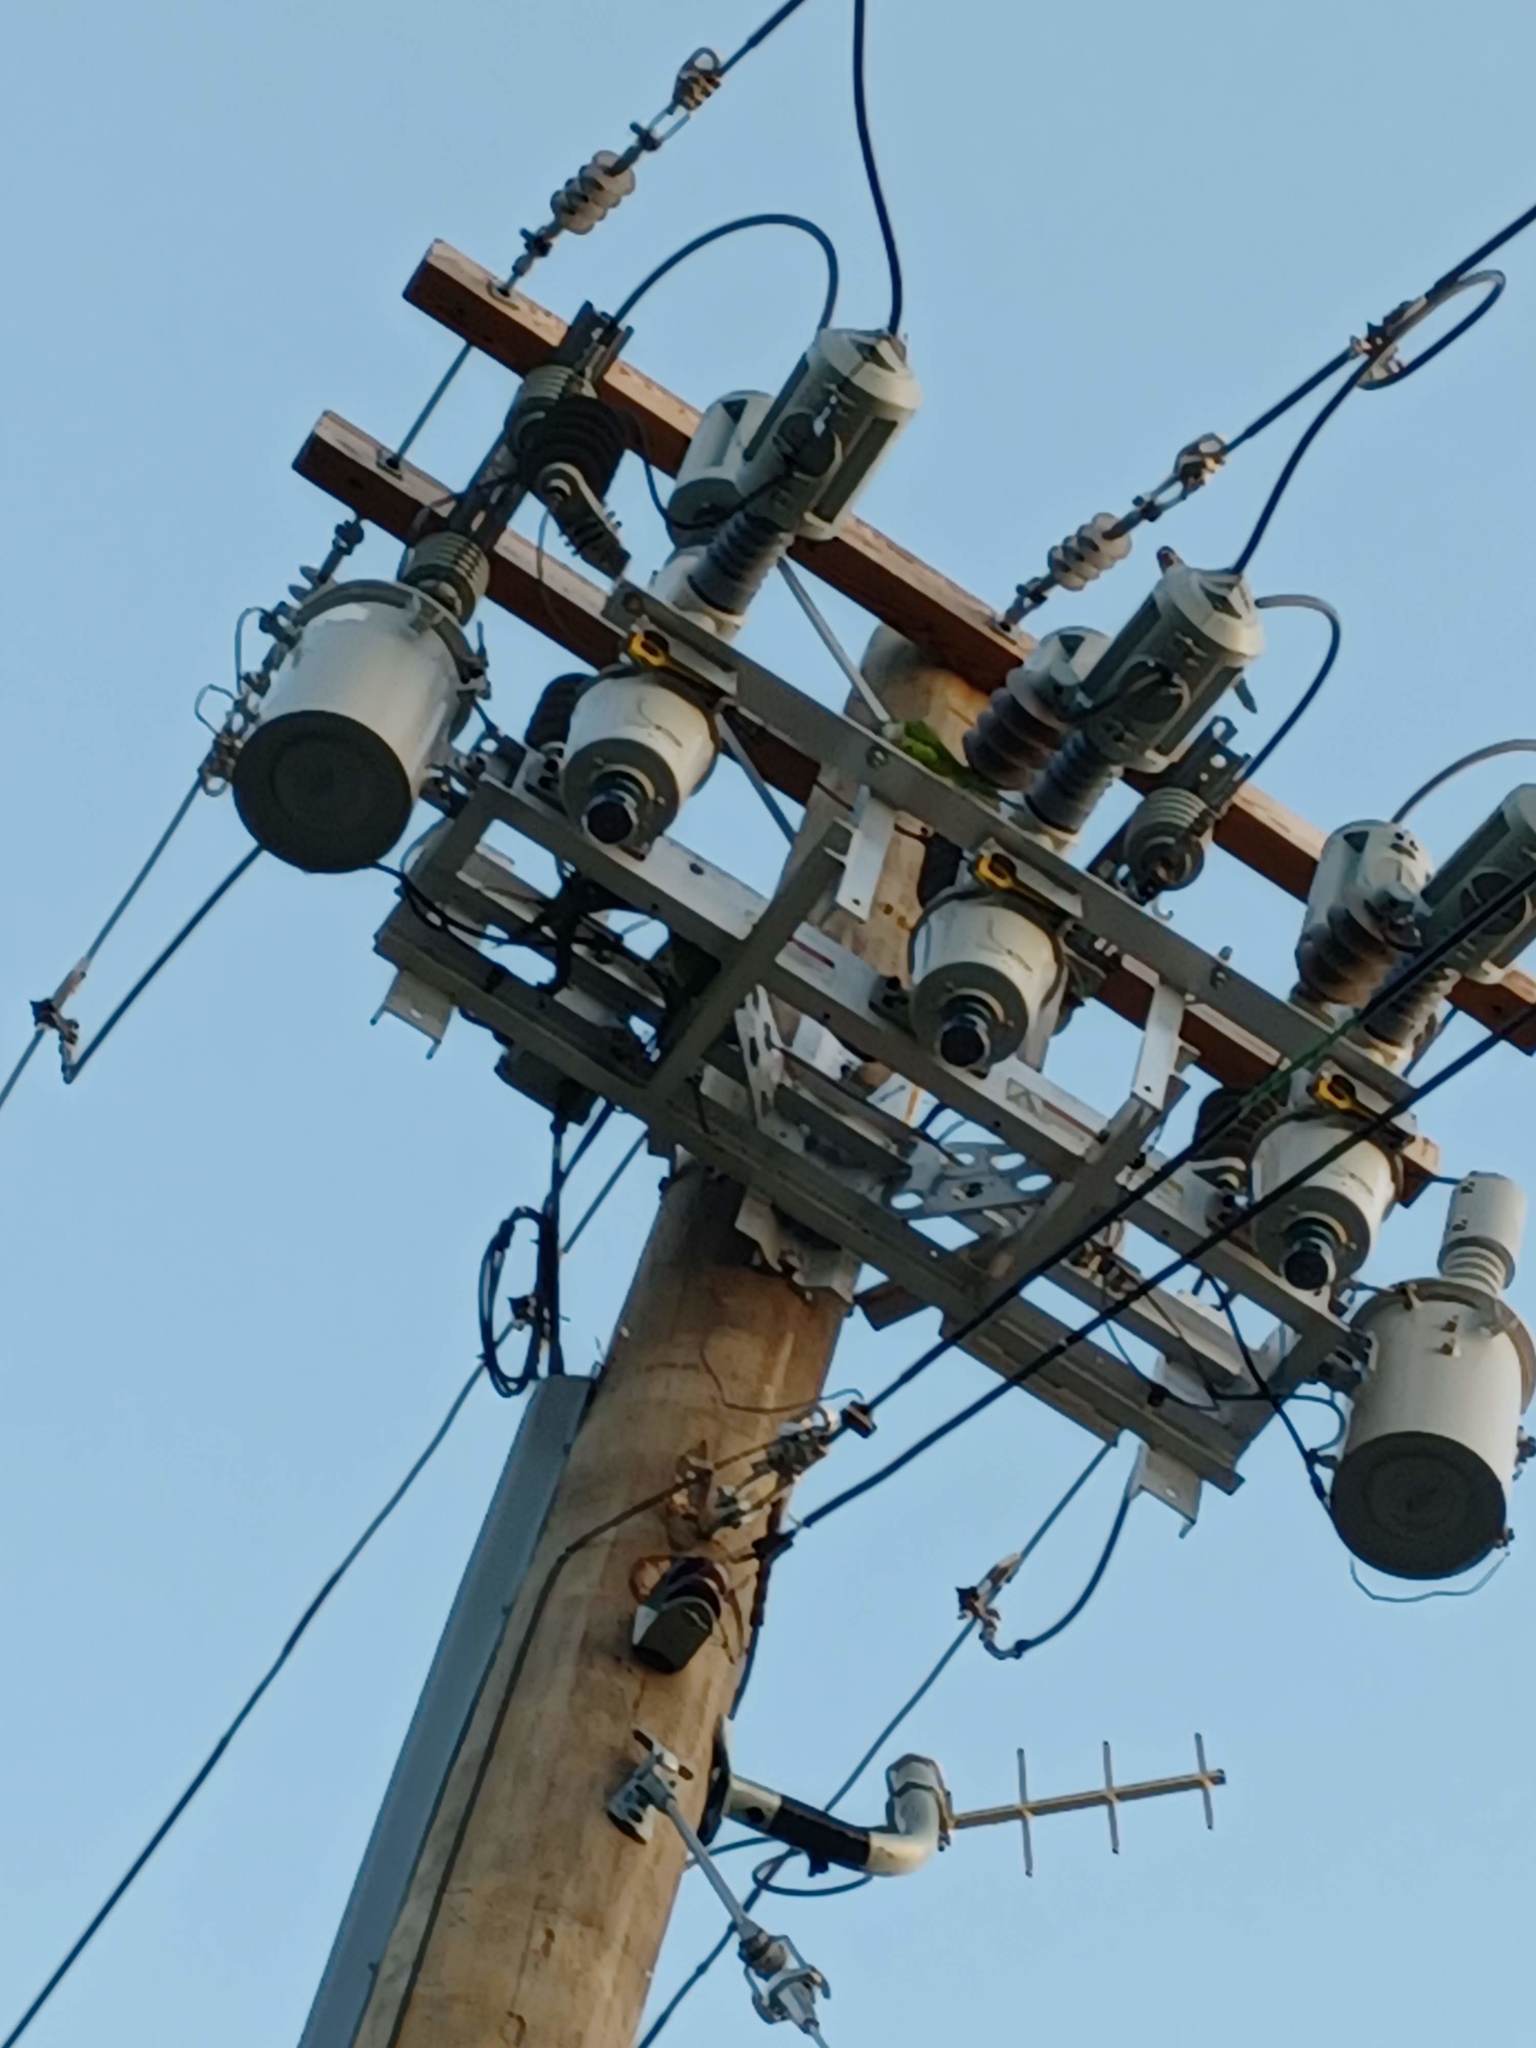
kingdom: Animalia
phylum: Chordata
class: Aves
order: Psittaciformes
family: Psittacidae
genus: Myiopsitta
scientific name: Myiopsitta monachus
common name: Monk parakeet
